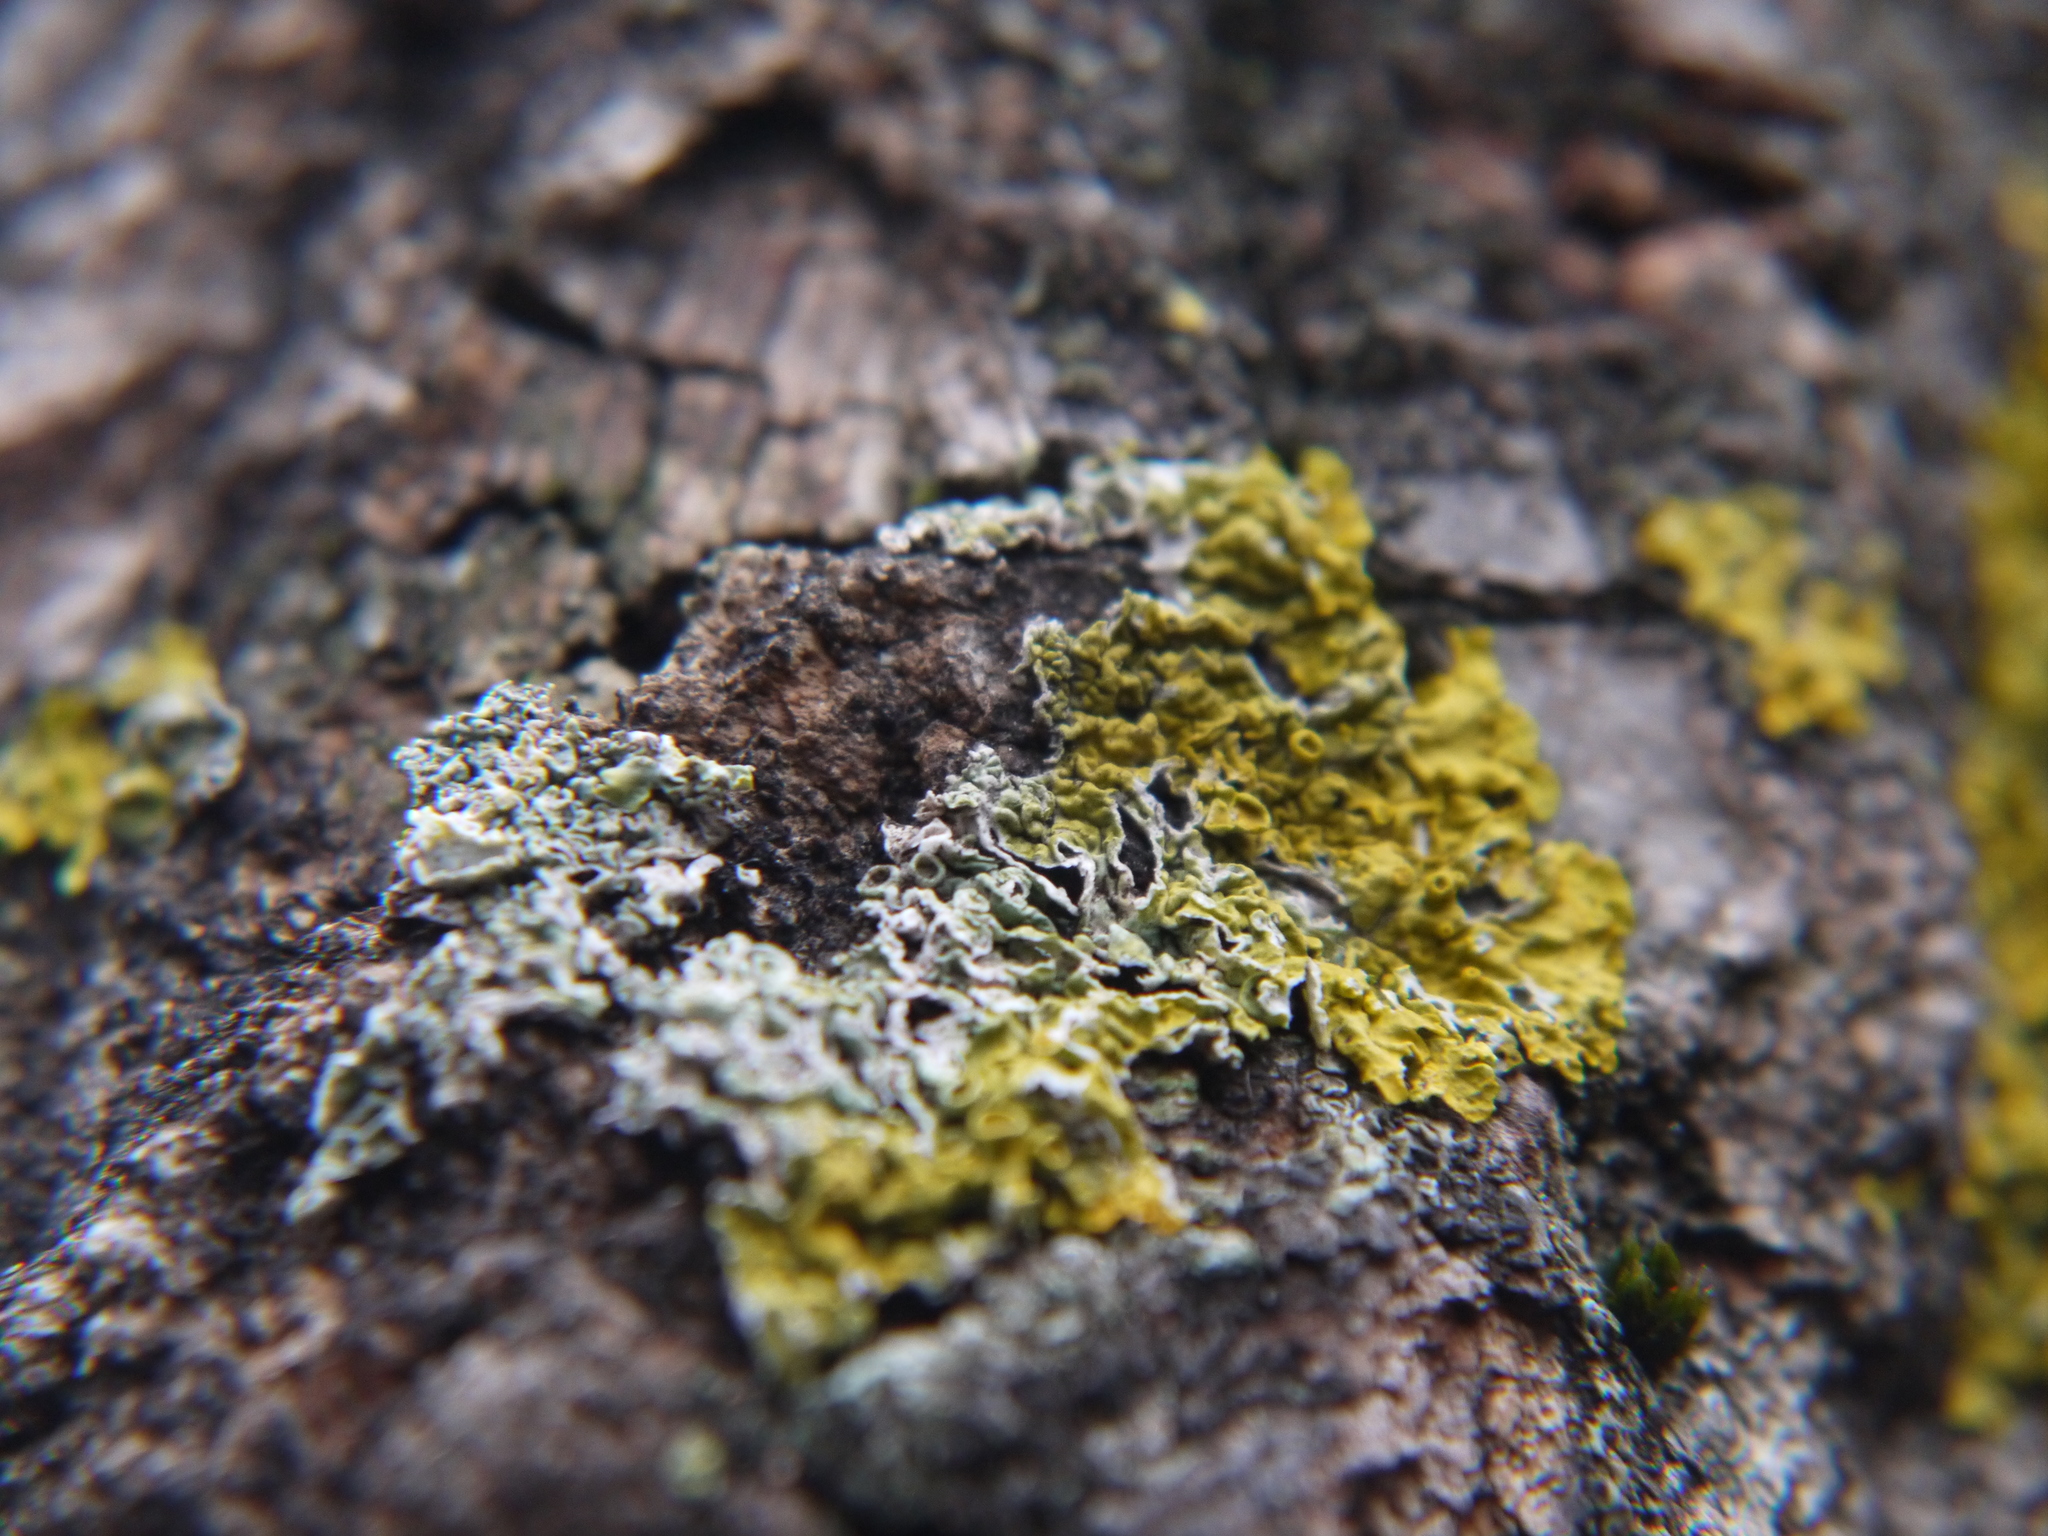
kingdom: Fungi
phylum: Ascomycota
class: Lecanoromycetes
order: Teloschistales
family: Teloschistaceae
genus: Xanthoria
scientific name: Xanthoria parietina
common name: Common orange lichen
